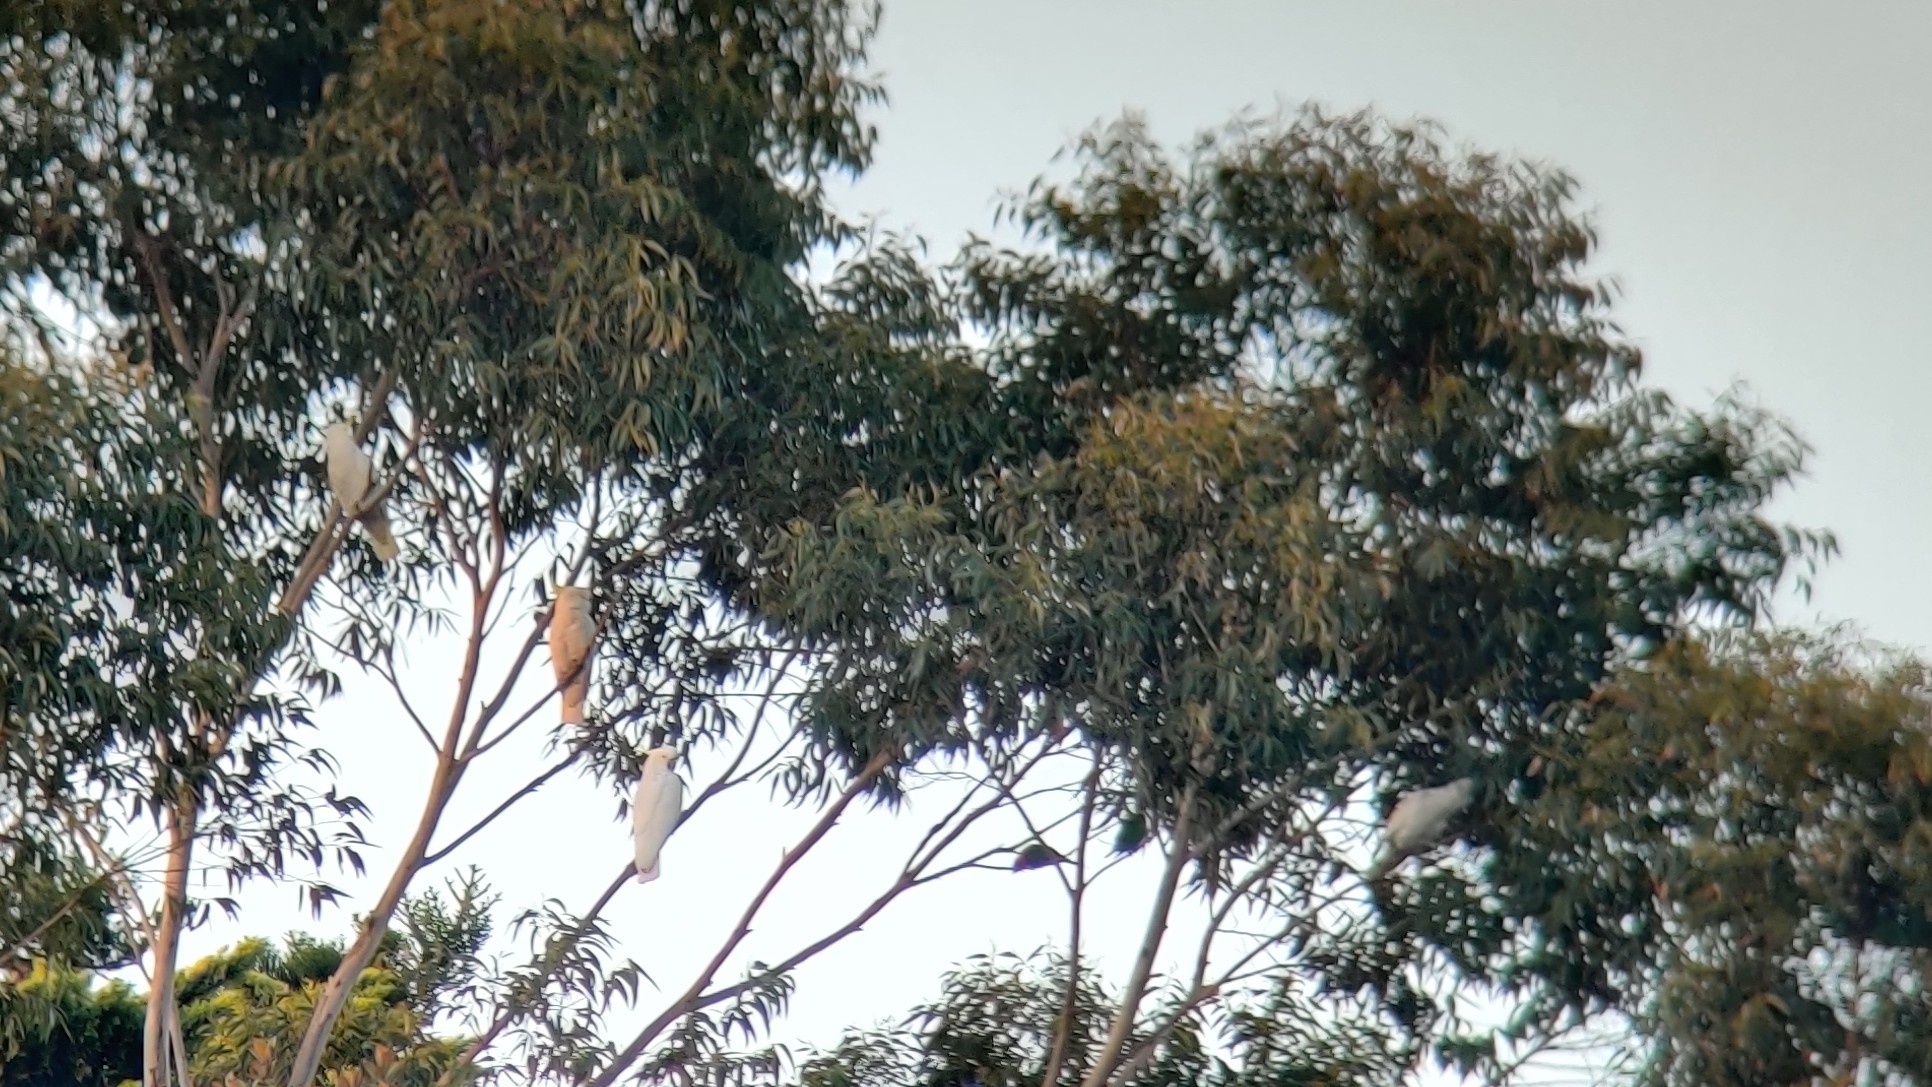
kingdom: Animalia
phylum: Chordata
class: Aves
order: Psittaciformes
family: Psittacidae
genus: Cacatua
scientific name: Cacatua galerita
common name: Sulphur-crested cockatoo
